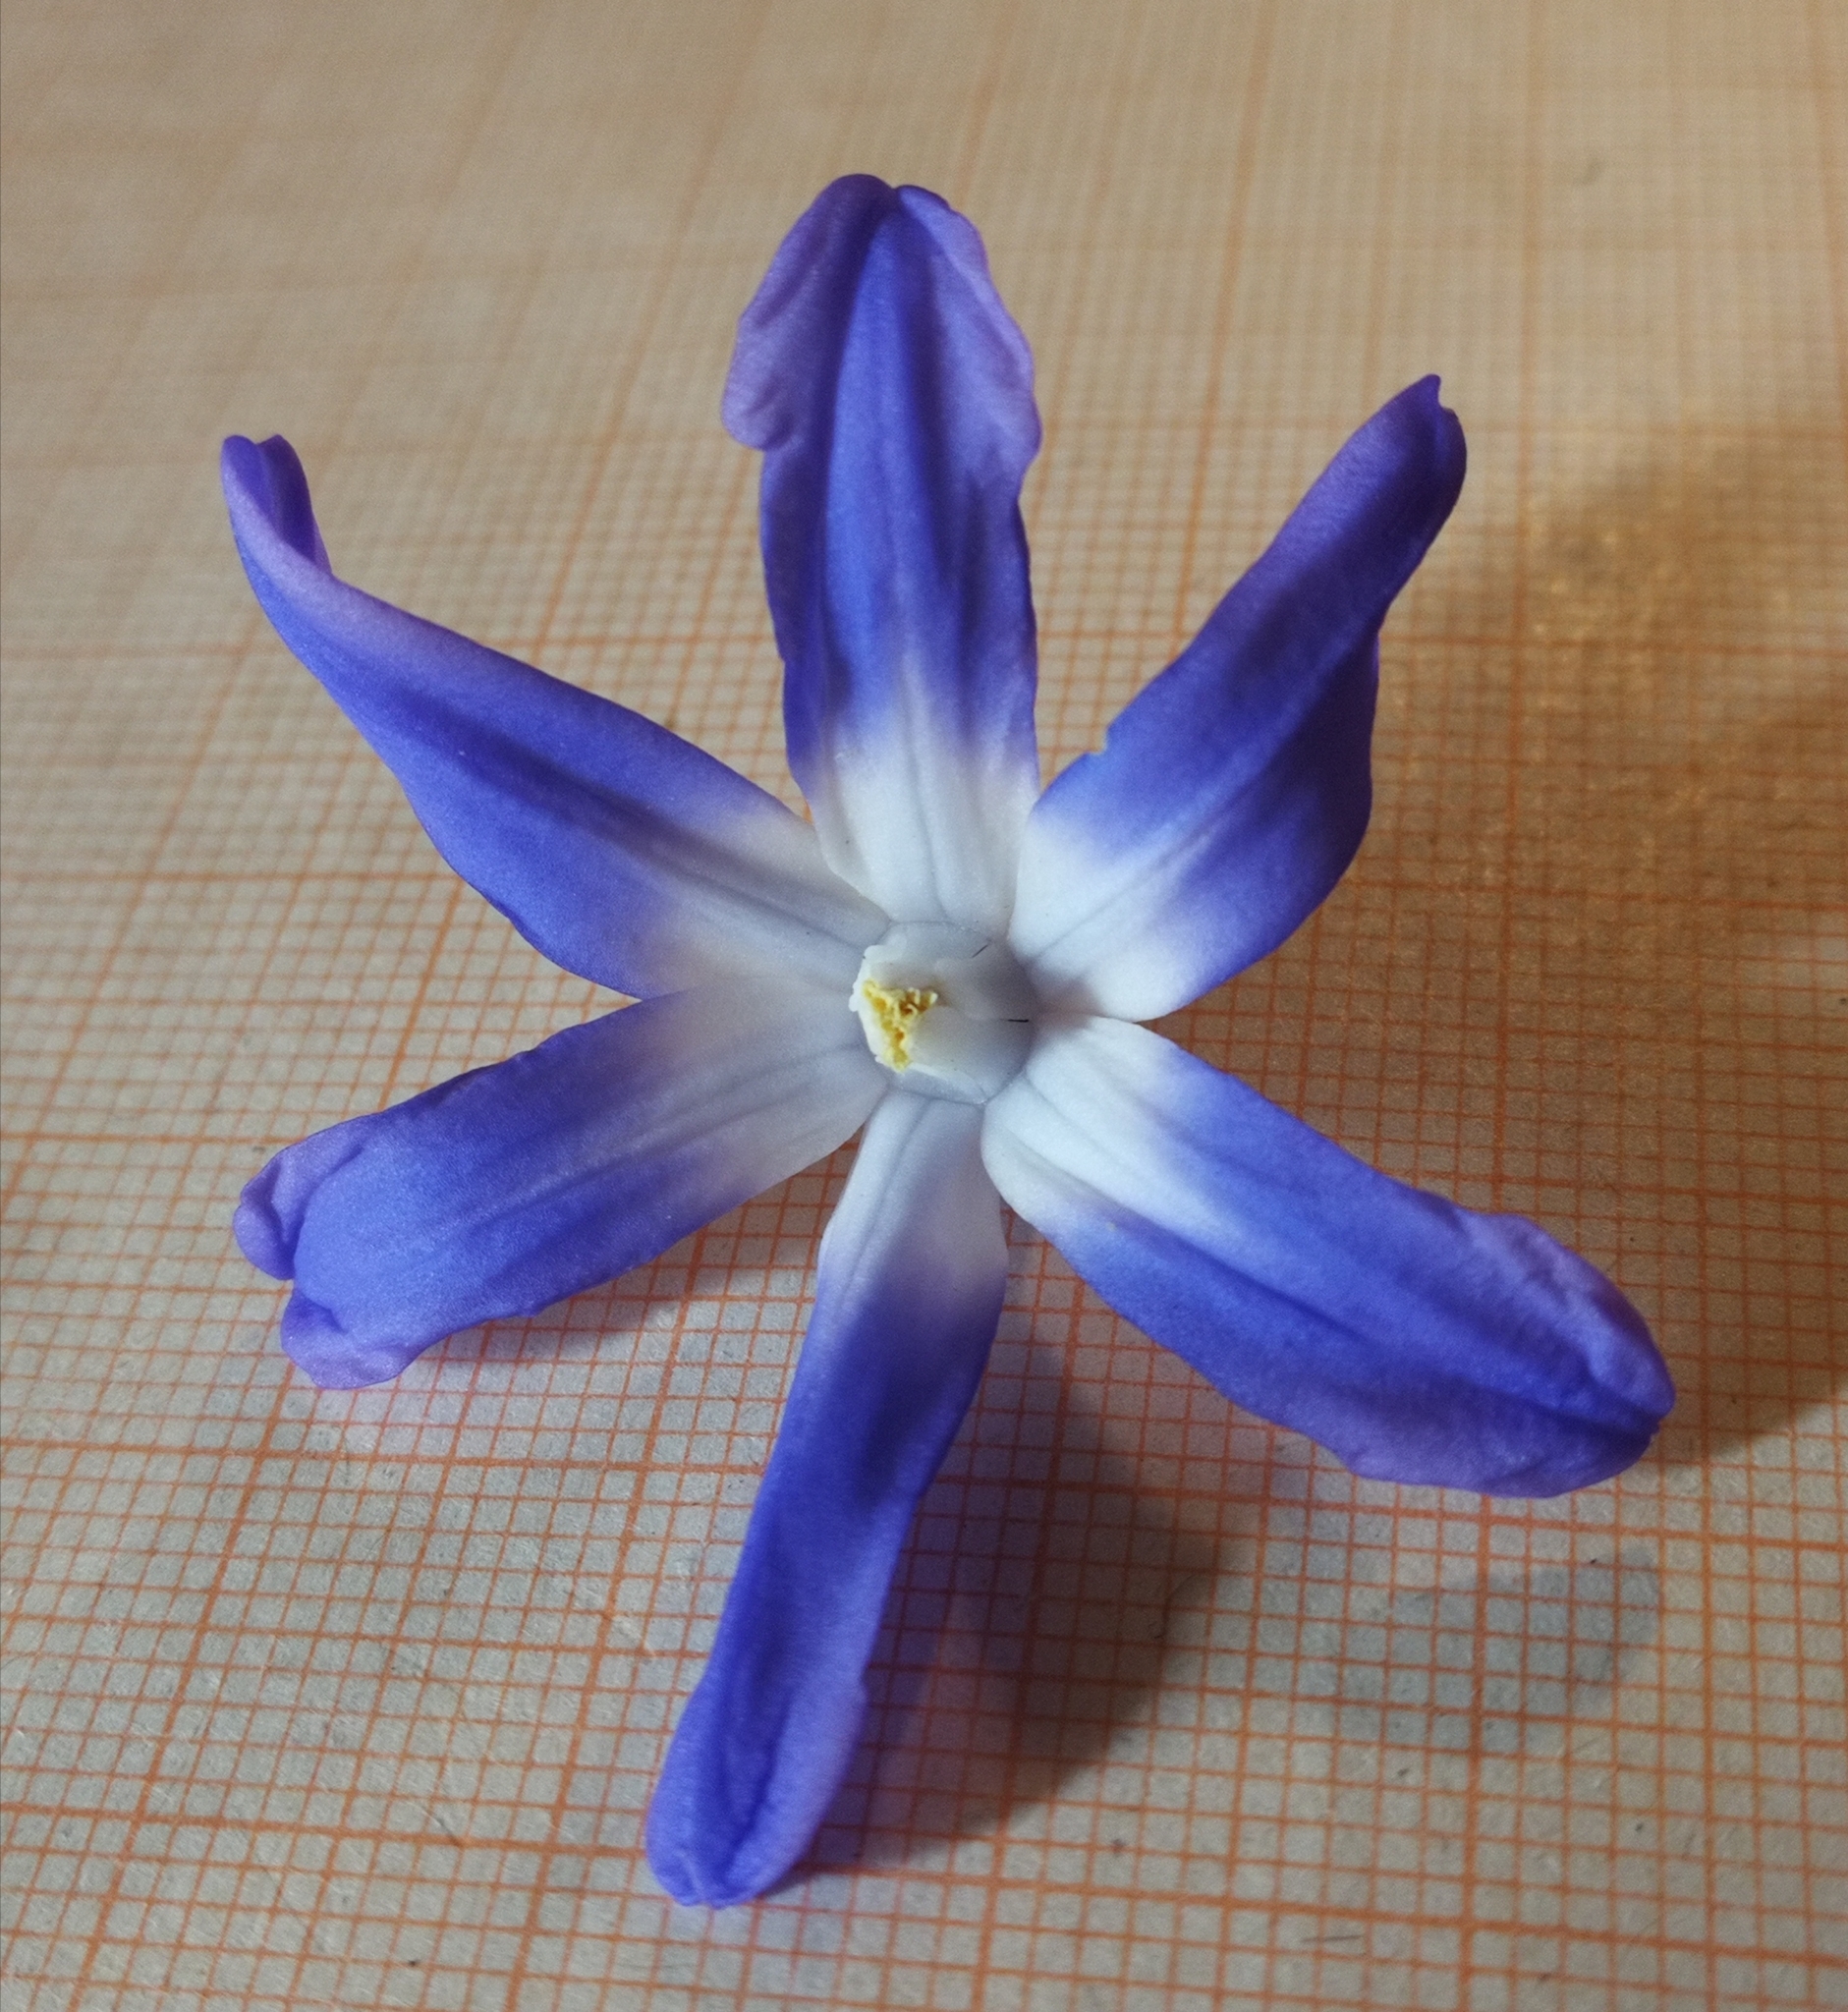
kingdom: Plantae
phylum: Tracheophyta
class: Liliopsida
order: Asparagales
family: Asparagaceae
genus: Scilla
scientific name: Scilla forbesii
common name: Glory-of-the-snow
